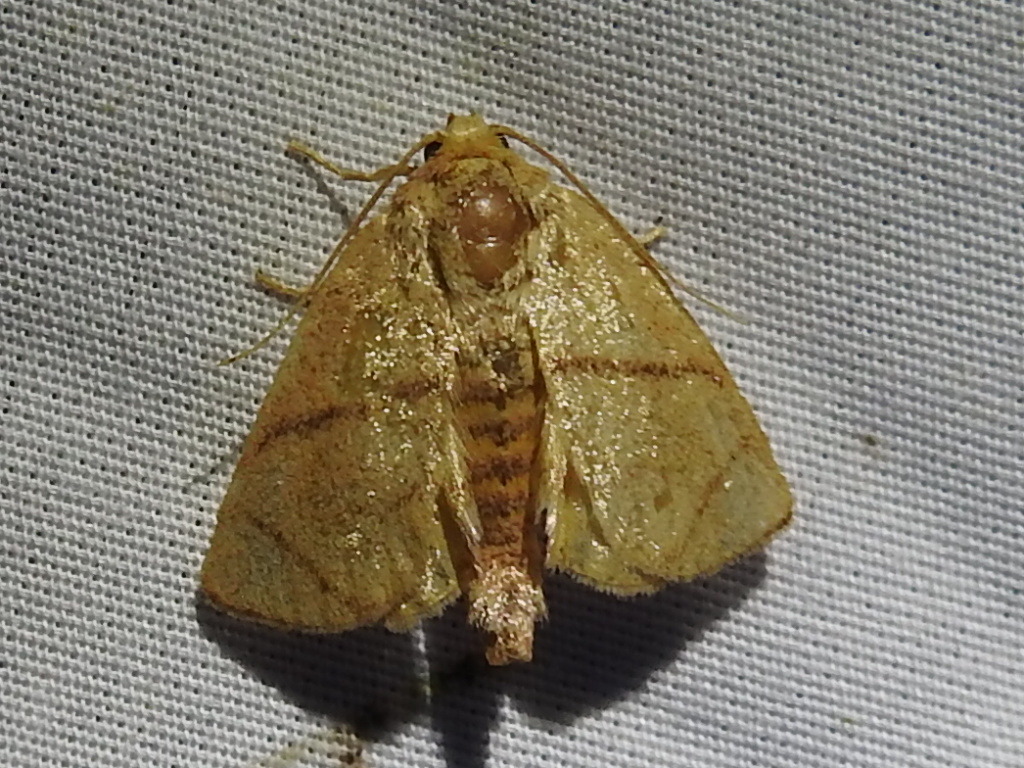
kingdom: Animalia
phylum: Arthropoda
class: Insecta
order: Lepidoptera
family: Limacodidae
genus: Apoda
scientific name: Apoda y-inversa
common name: Yellow-collared slug moth
